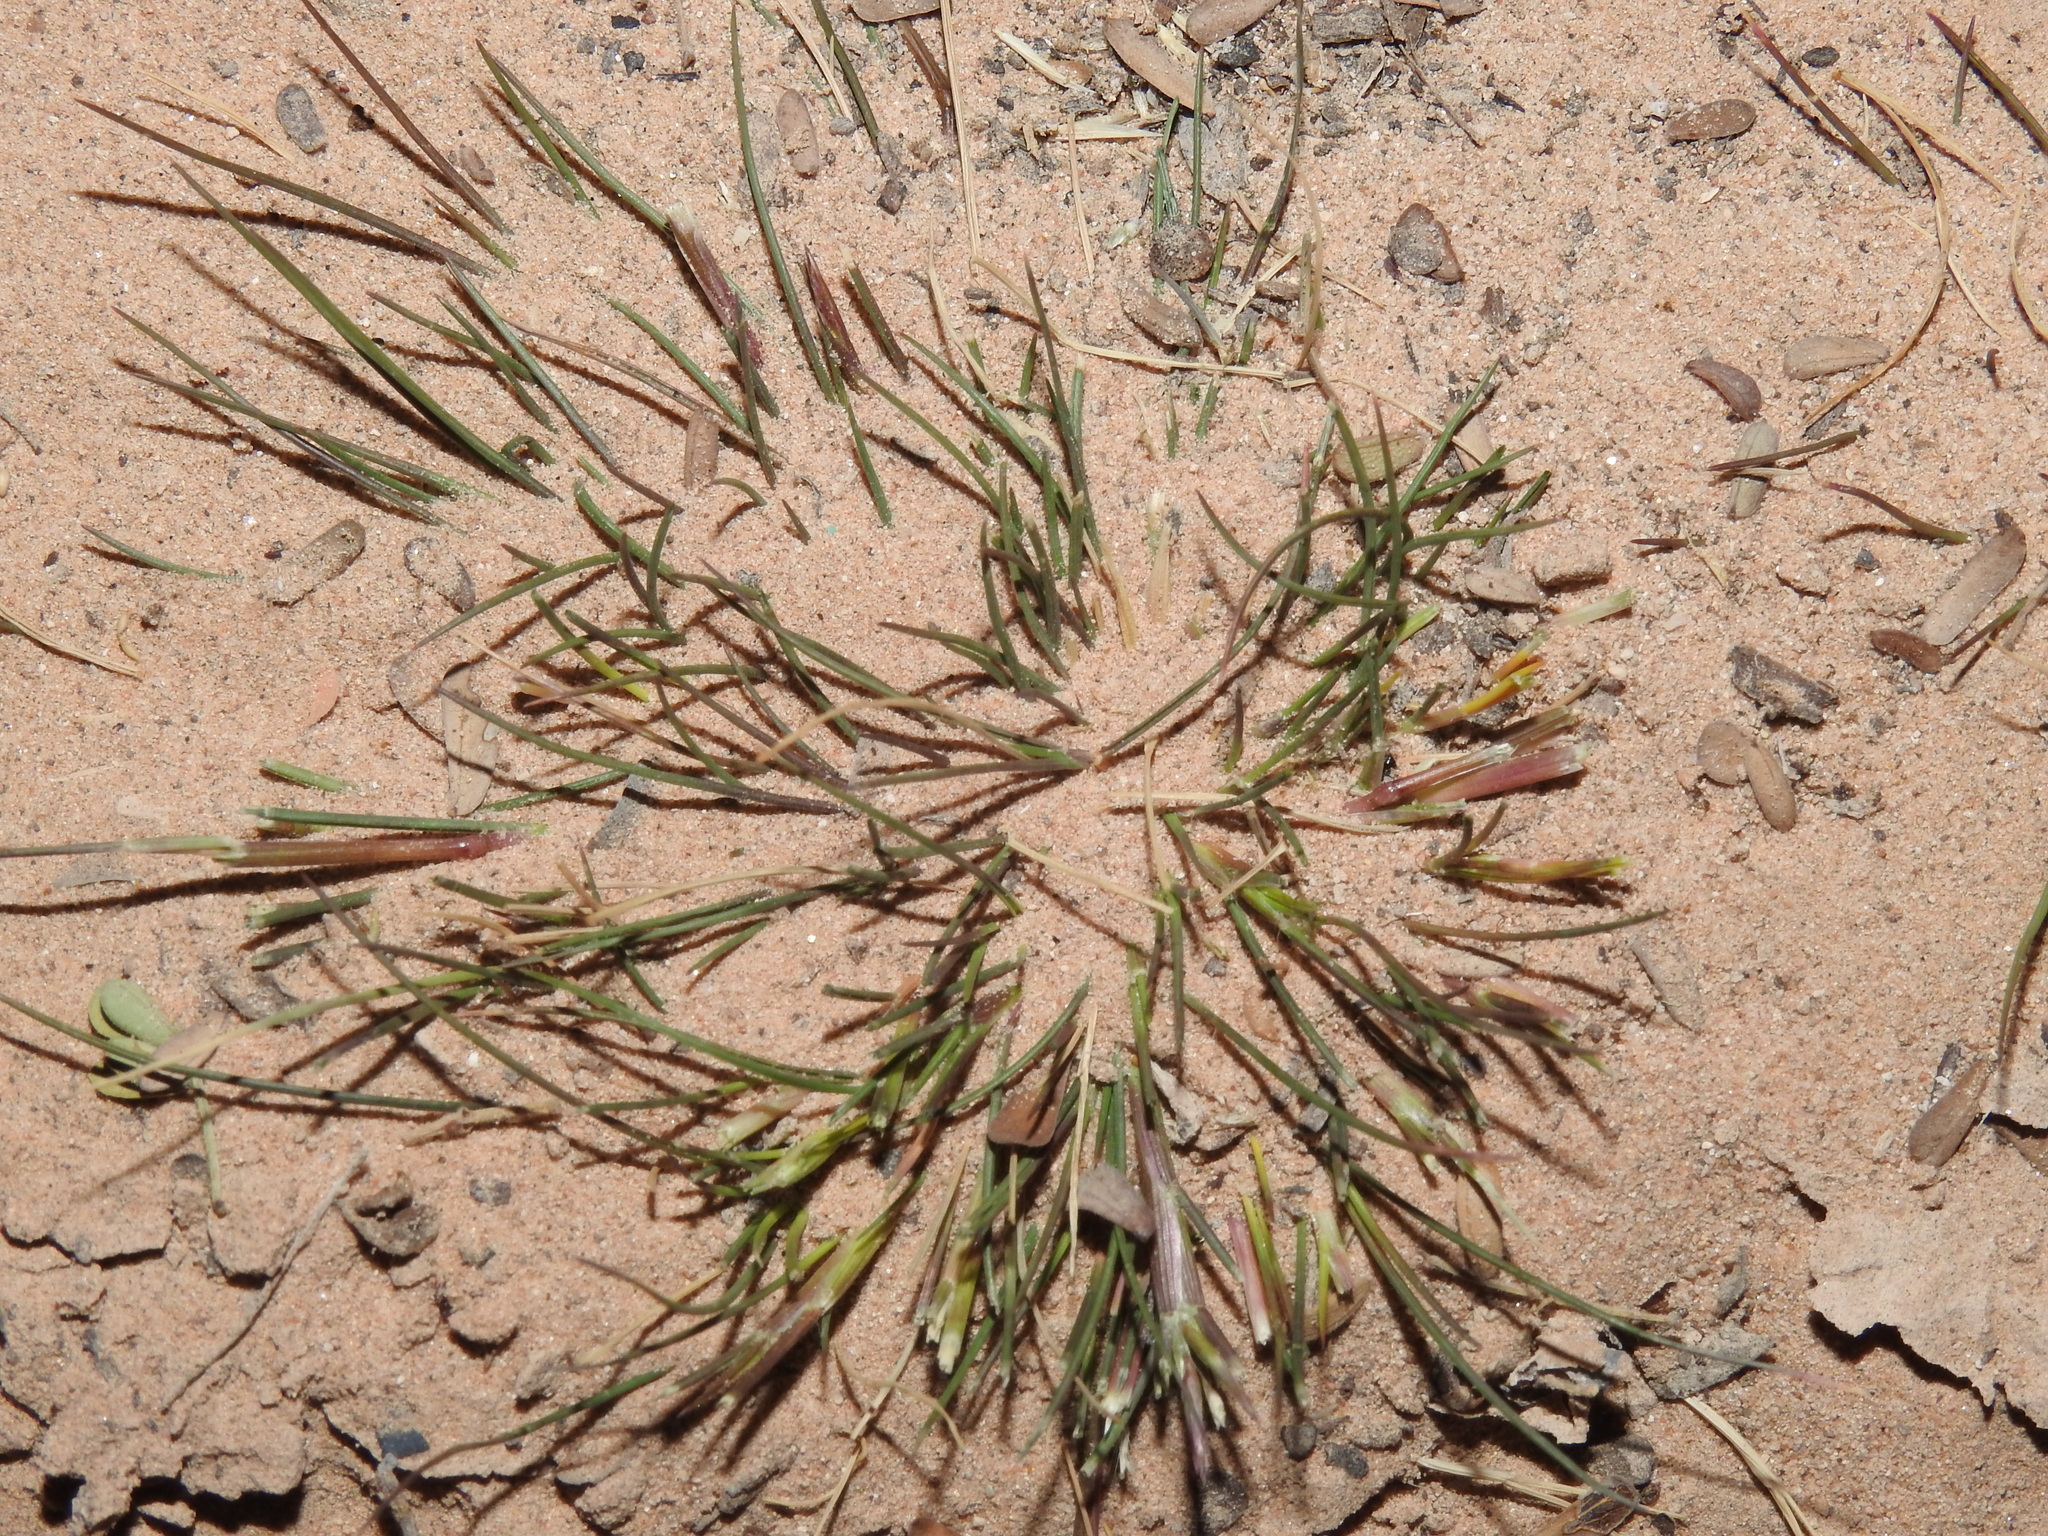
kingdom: Plantae
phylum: Tracheophyta
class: Liliopsida
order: Poales
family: Poaceae
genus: Schismus
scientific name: Schismus barbatus
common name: Kelch-grass
